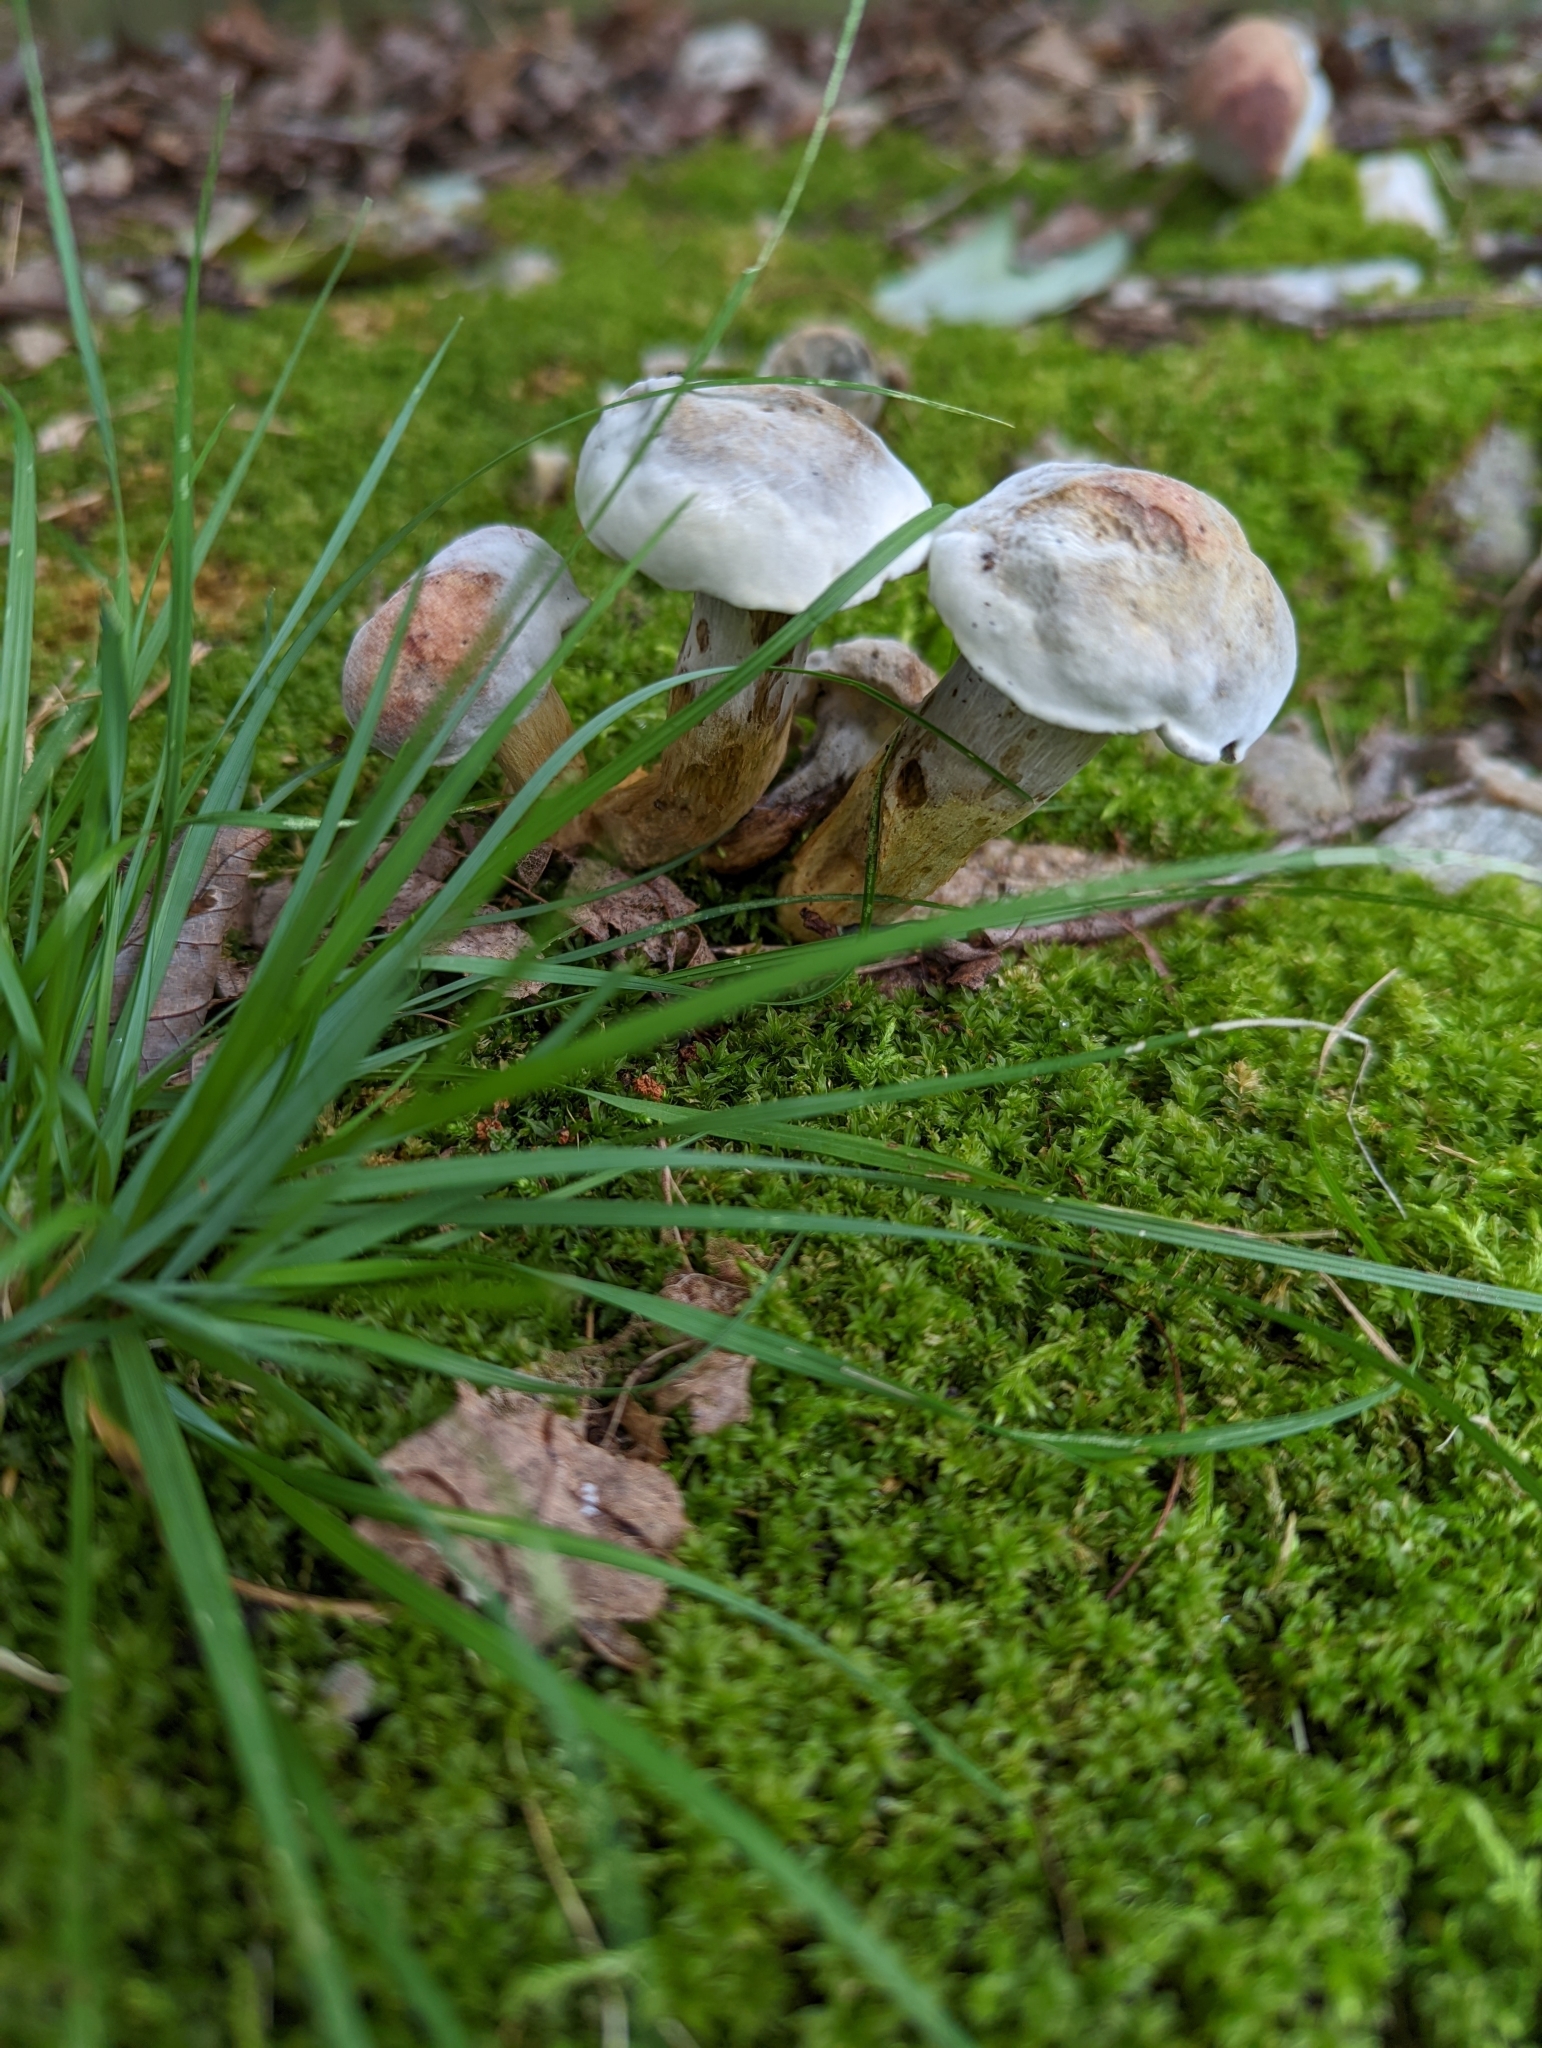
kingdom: Fungi
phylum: Ascomycota
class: Sordariomycetes
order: Hypocreales
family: Hypocreaceae
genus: Hypomyces
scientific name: Hypomyces chrysospermus
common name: Bolete mould
